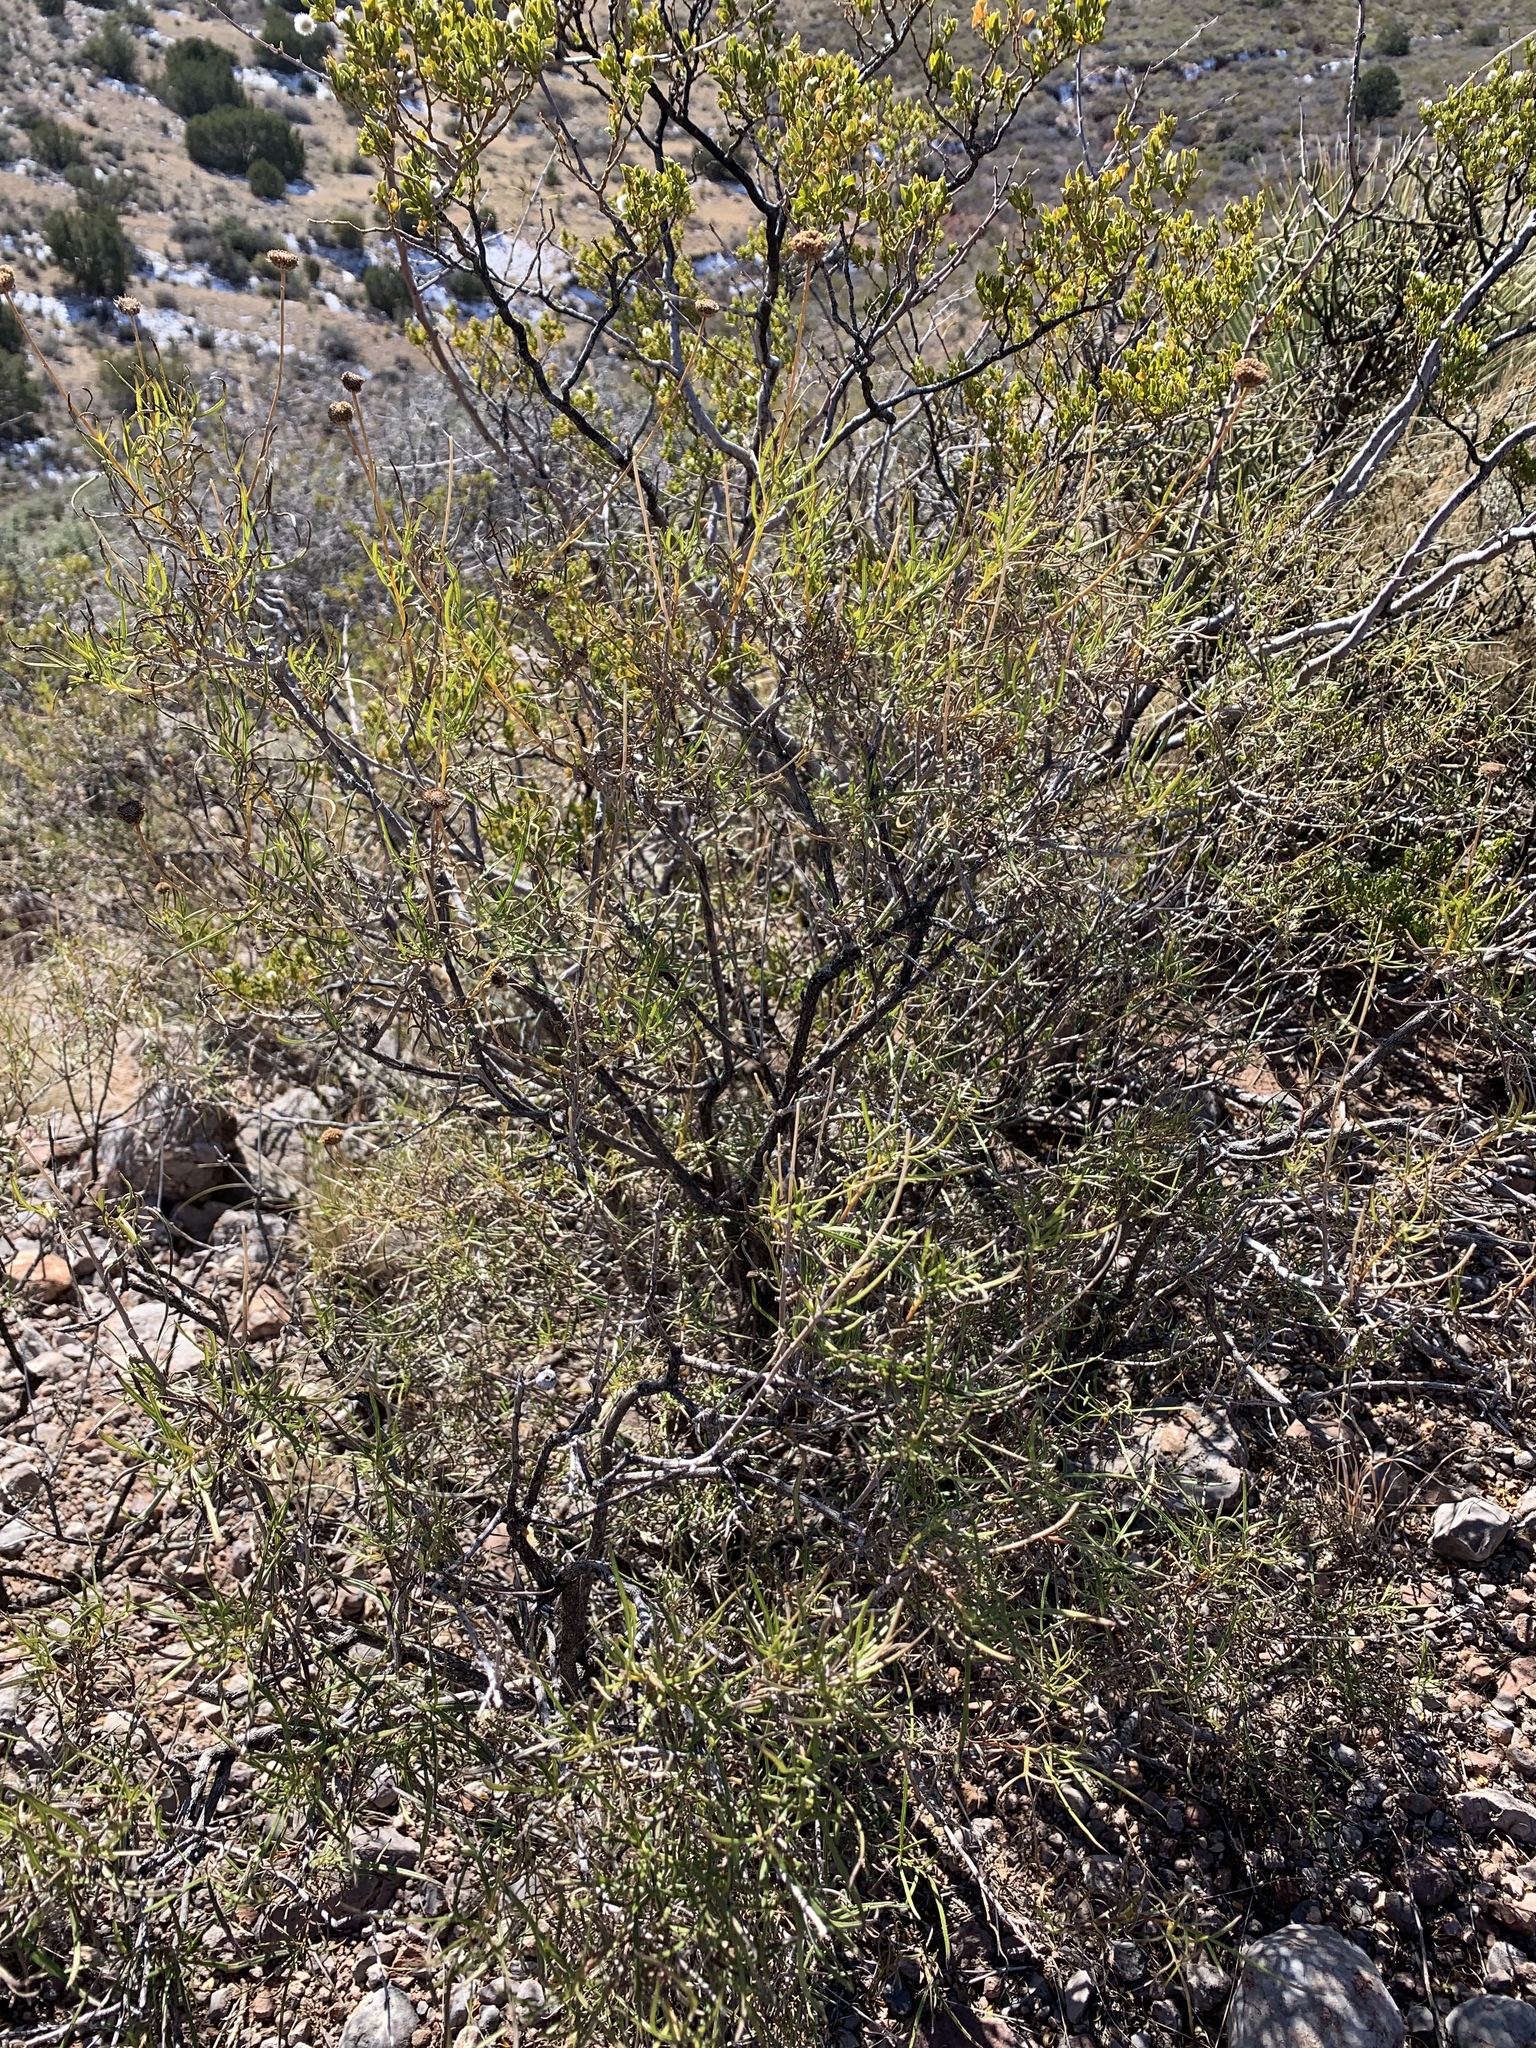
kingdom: Plantae
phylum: Tracheophyta
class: Magnoliopsida
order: Zygophyllales
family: Zygophyllaceae
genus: Larrea
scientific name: Larrea tridentata
